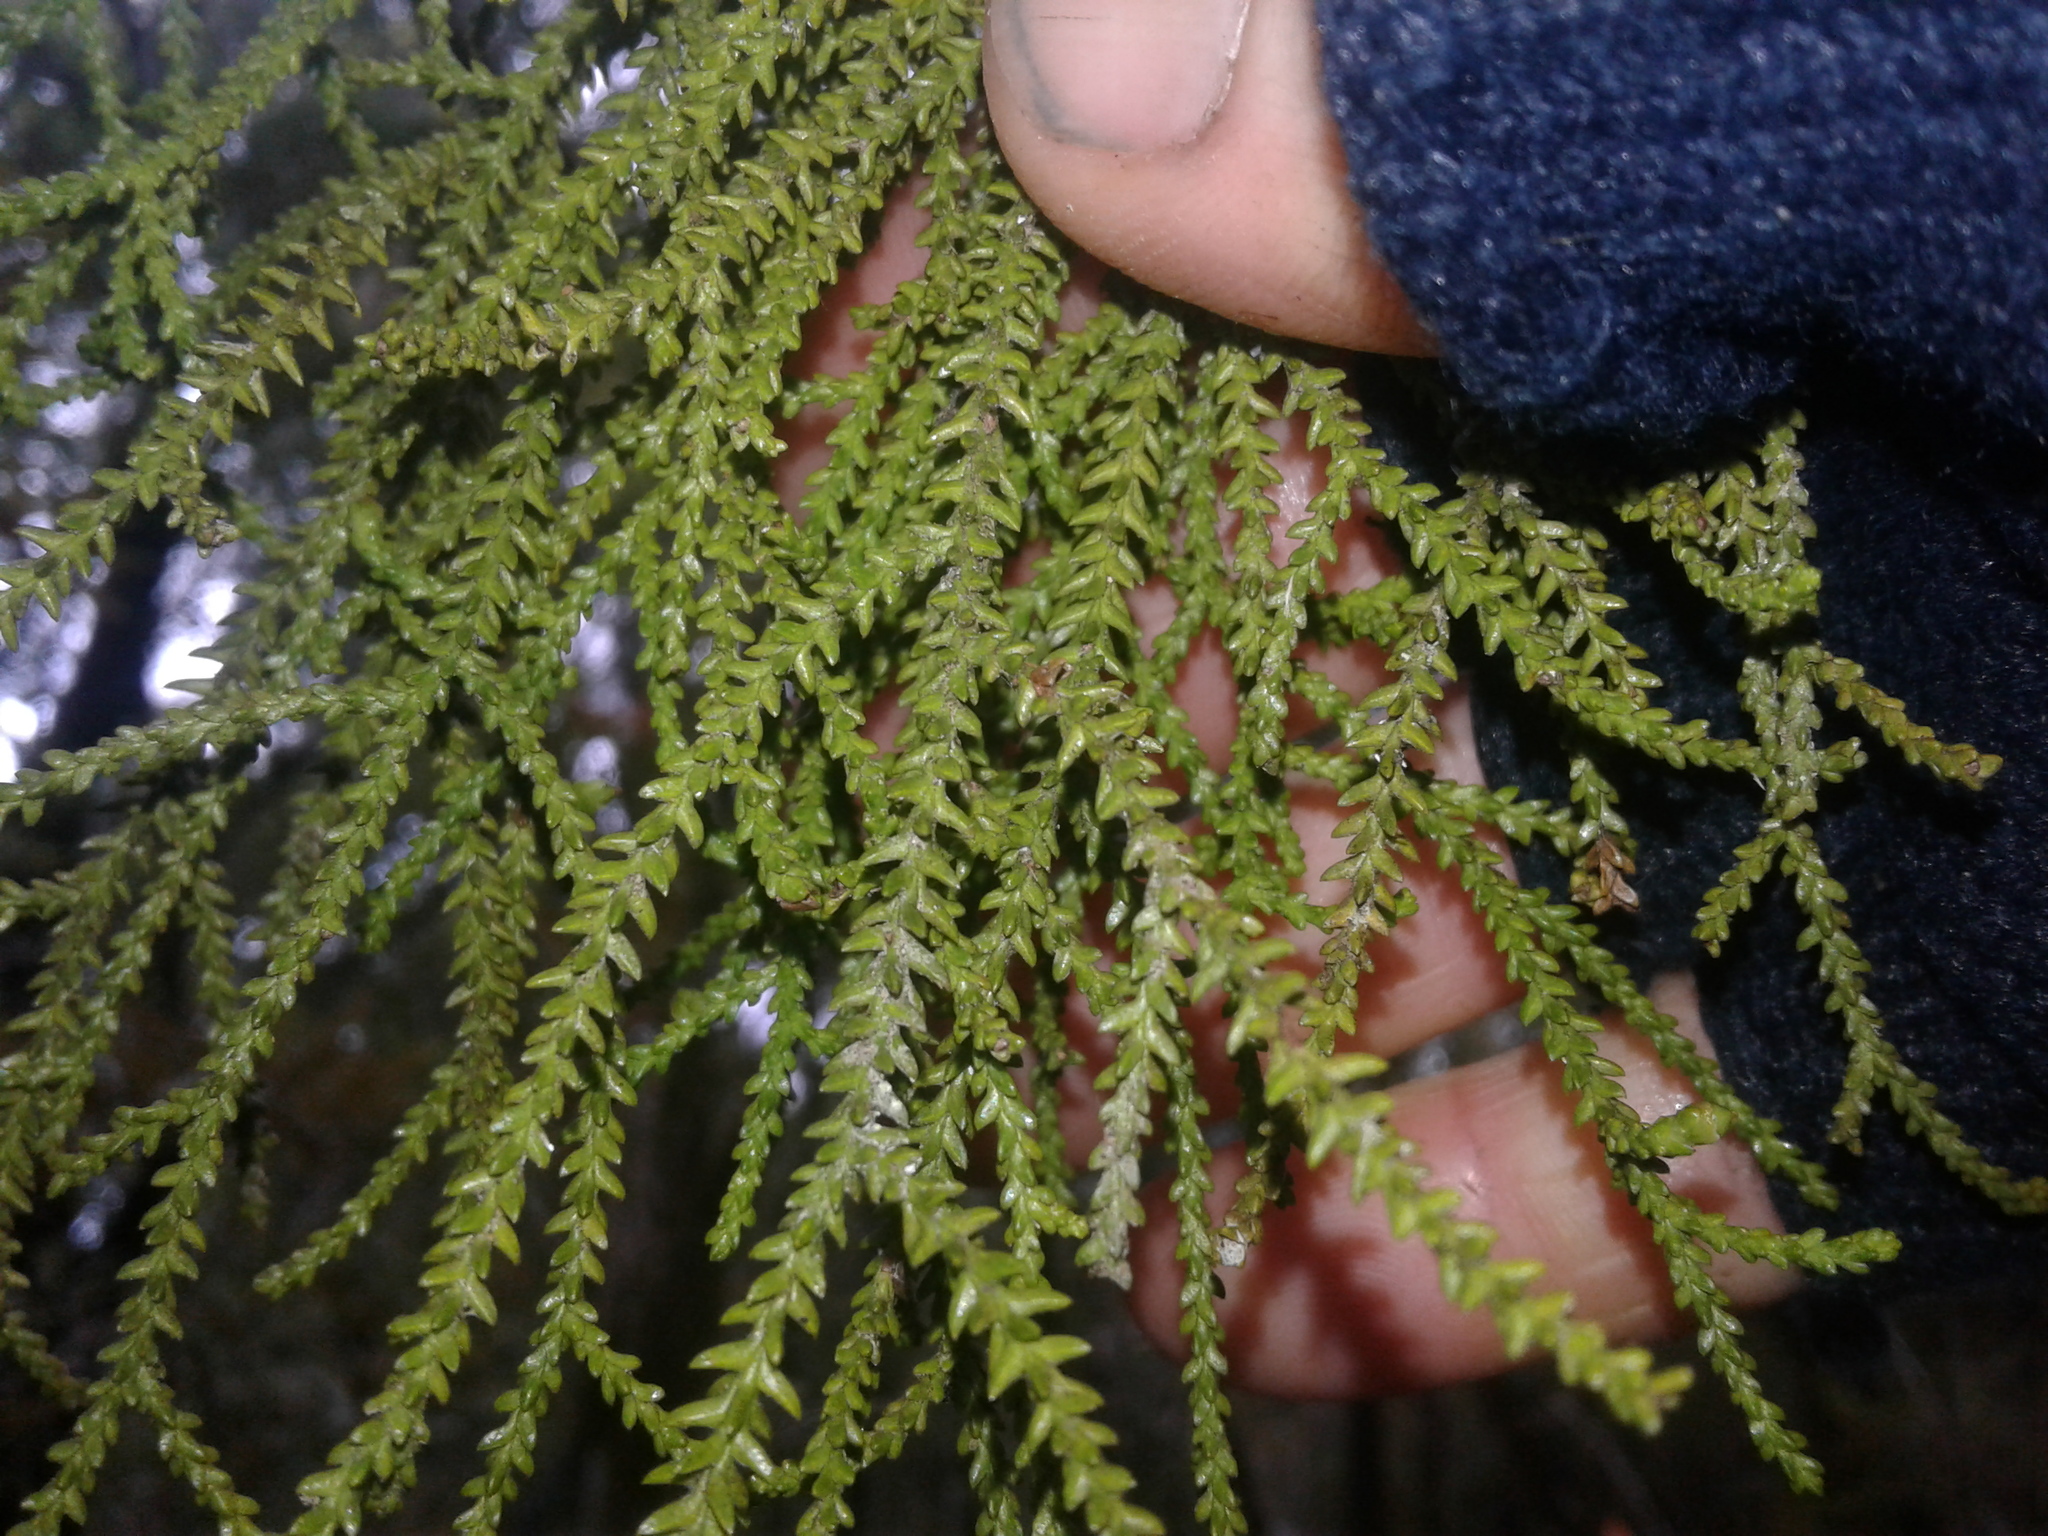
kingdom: Plantae
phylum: Tracheophyta
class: Pinopsida
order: Pinales
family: Podocarpaceae
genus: Lepidothamnus
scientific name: Lepidothamnus intermedius
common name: Yellow silver pine
